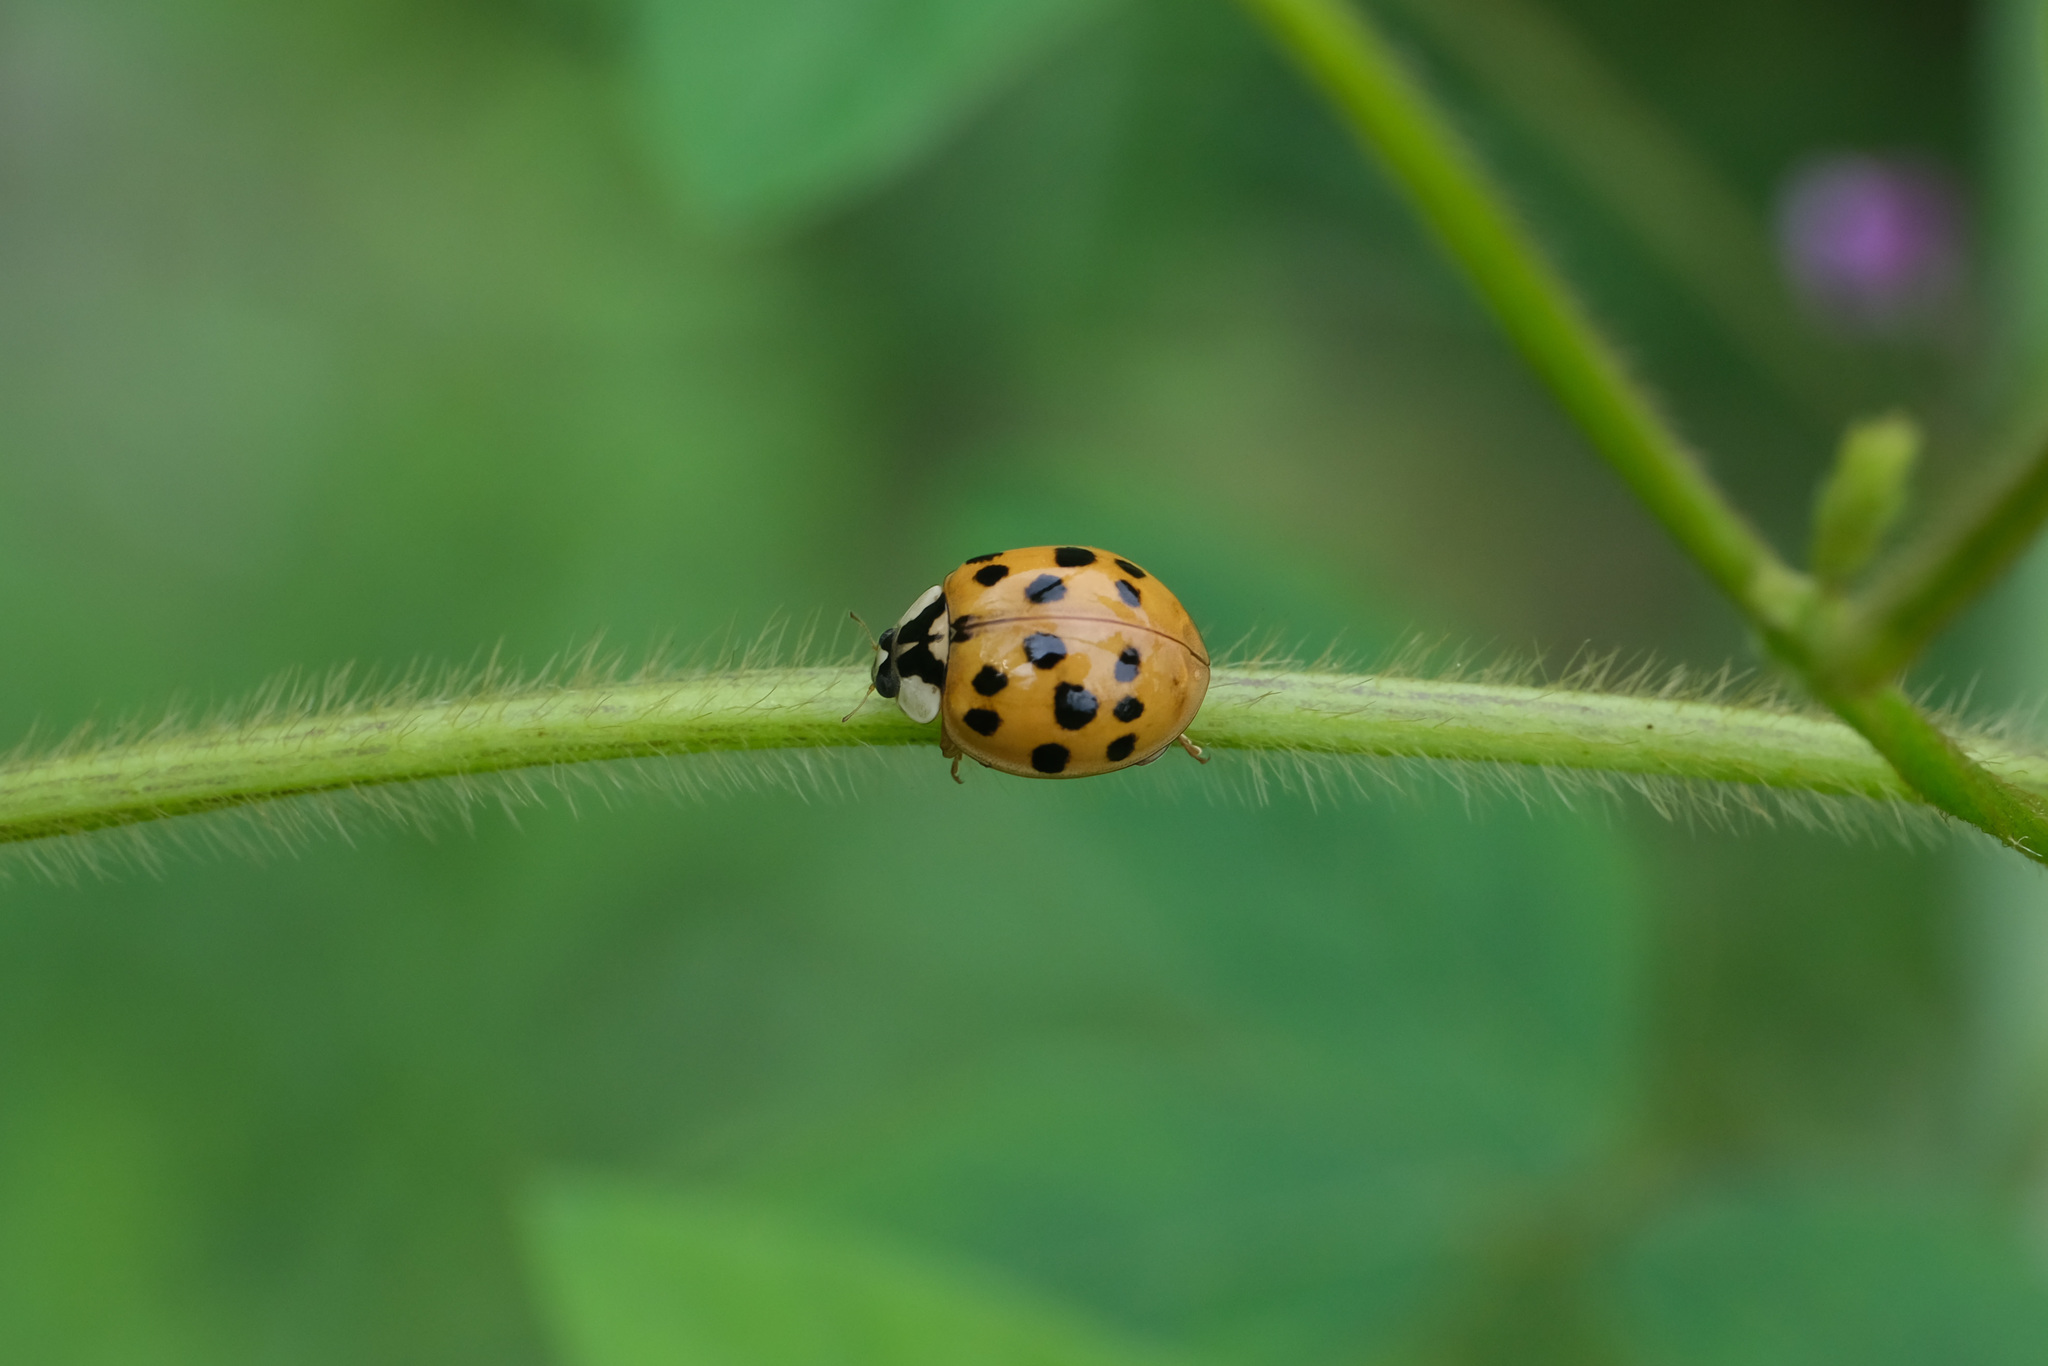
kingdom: Animalia
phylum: Arthropoda
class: Insecta
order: Coleoptera
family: Coccinellidae
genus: Harmonia
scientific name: Harmonia axyridis
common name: Harlequin ladybird
